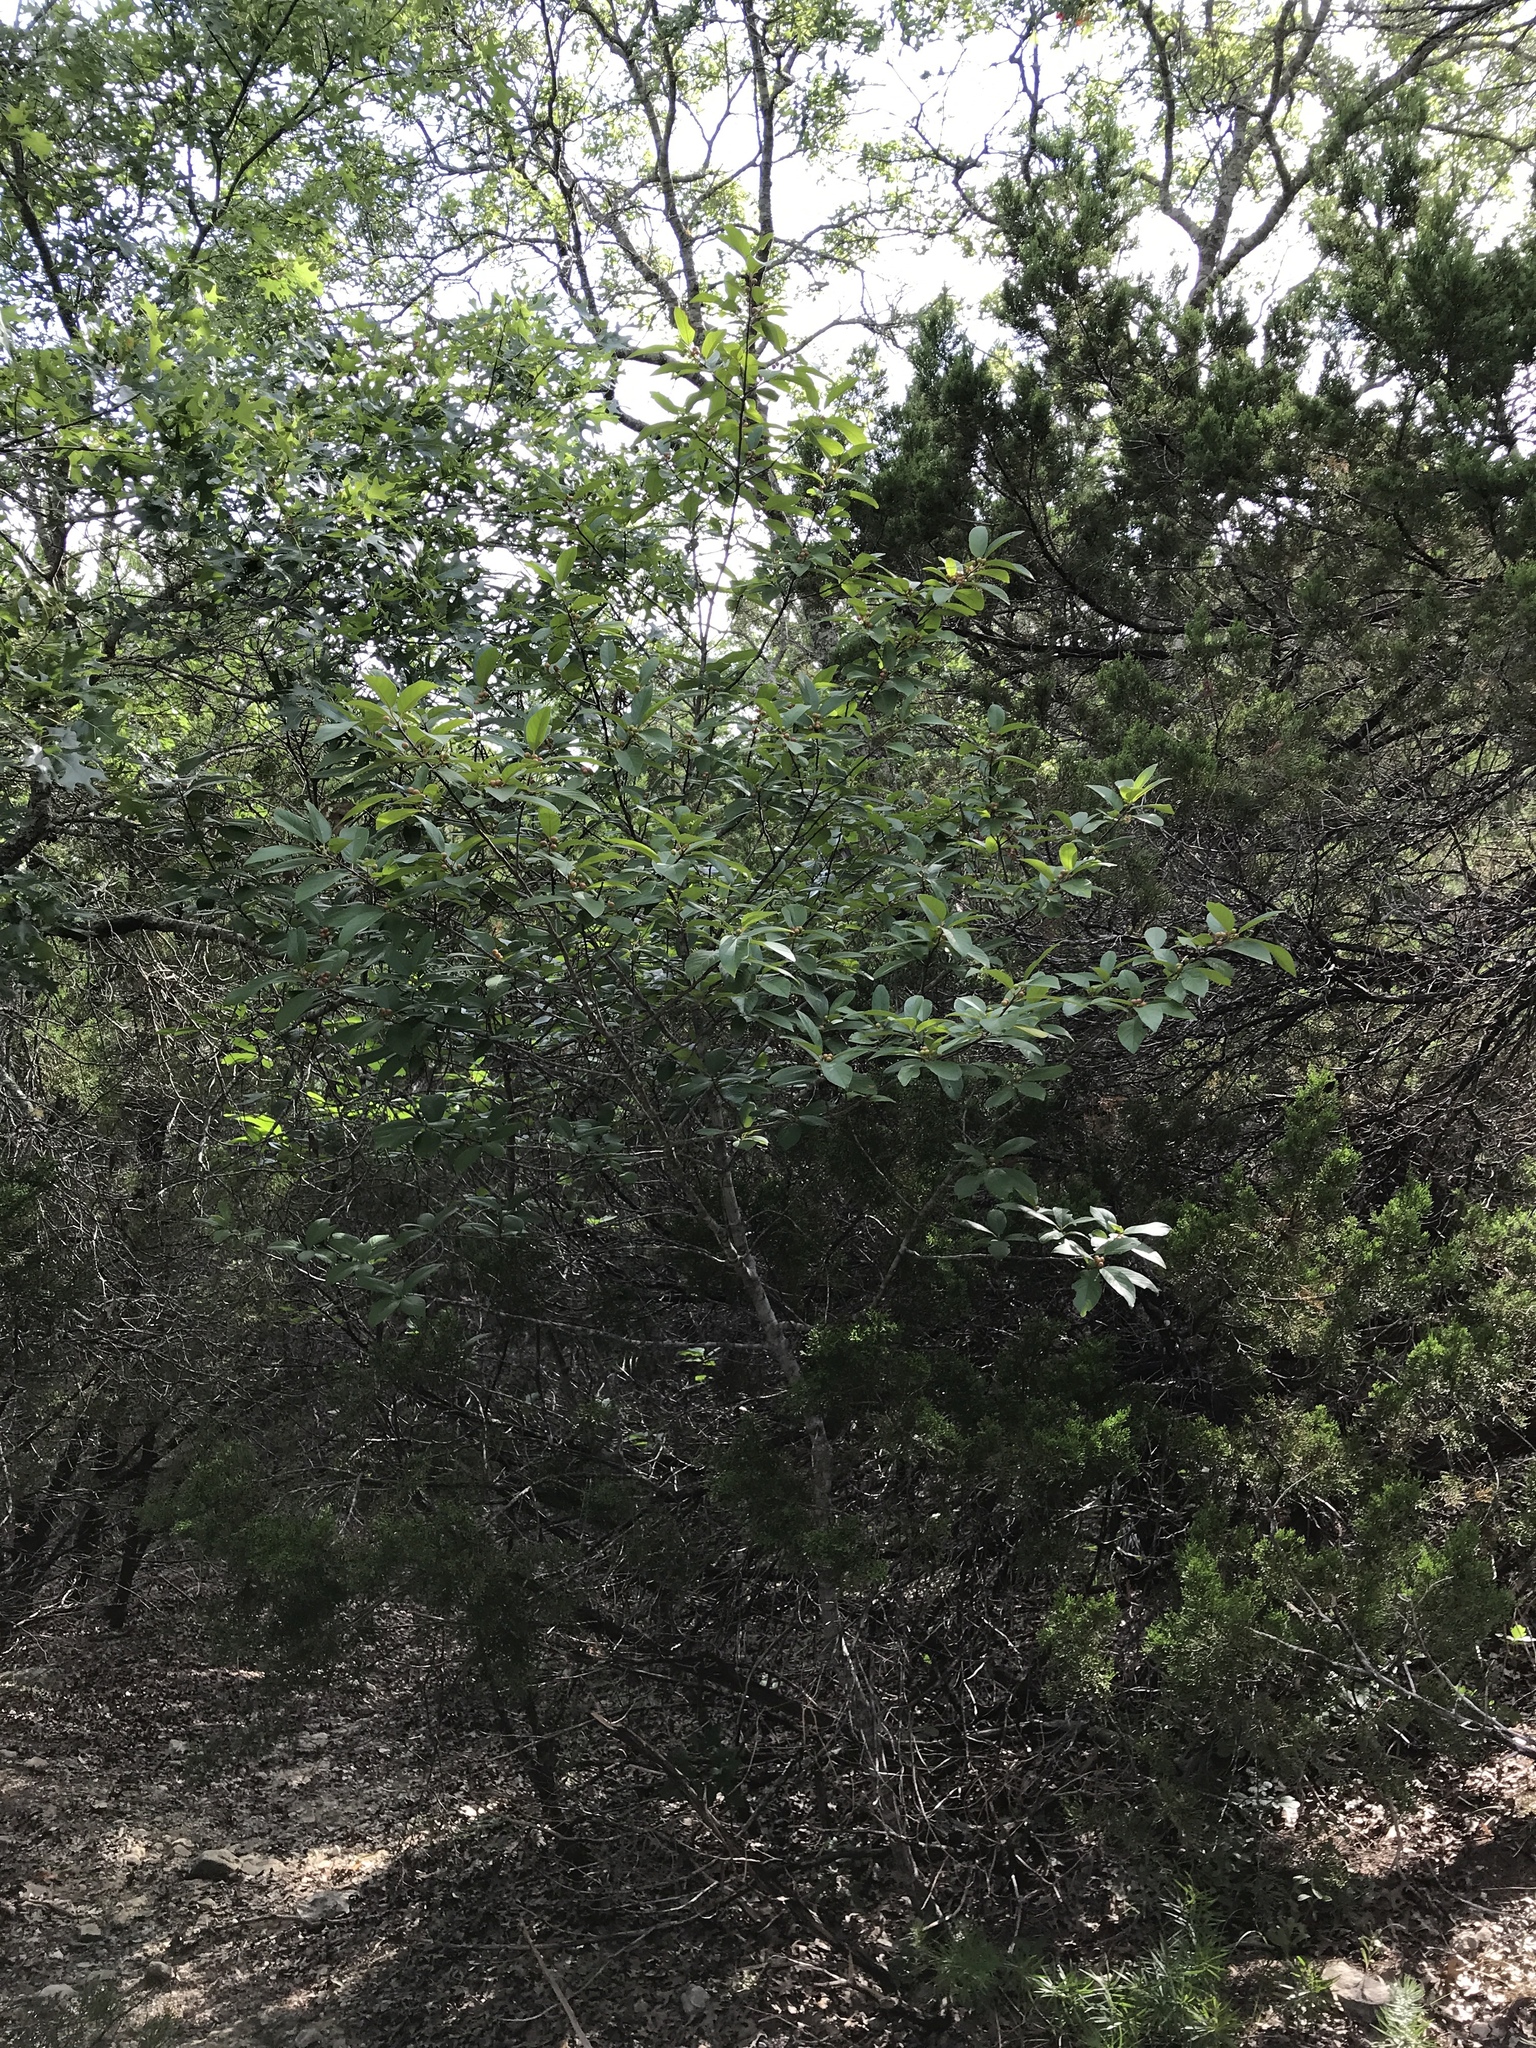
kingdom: Plantae
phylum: Tracheophyta
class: Magnoliopsida
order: Rosales
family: Rhamnaceae
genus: Frangula
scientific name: Frangula caroliniana
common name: Carolina buckthorn
